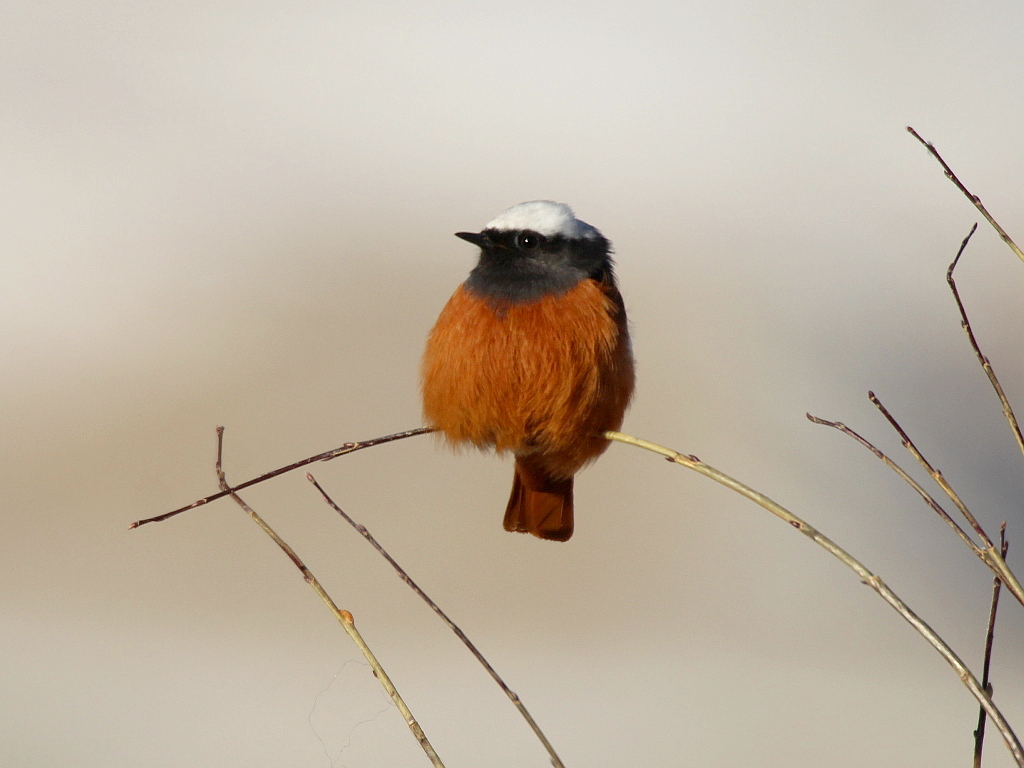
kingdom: Animalia
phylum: Chordata
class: Aves
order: Passeriformes
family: Muscicapidae
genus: Phoenicurus
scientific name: Phoenicurus erythrogastrus
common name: Güldenstädt's redstart
